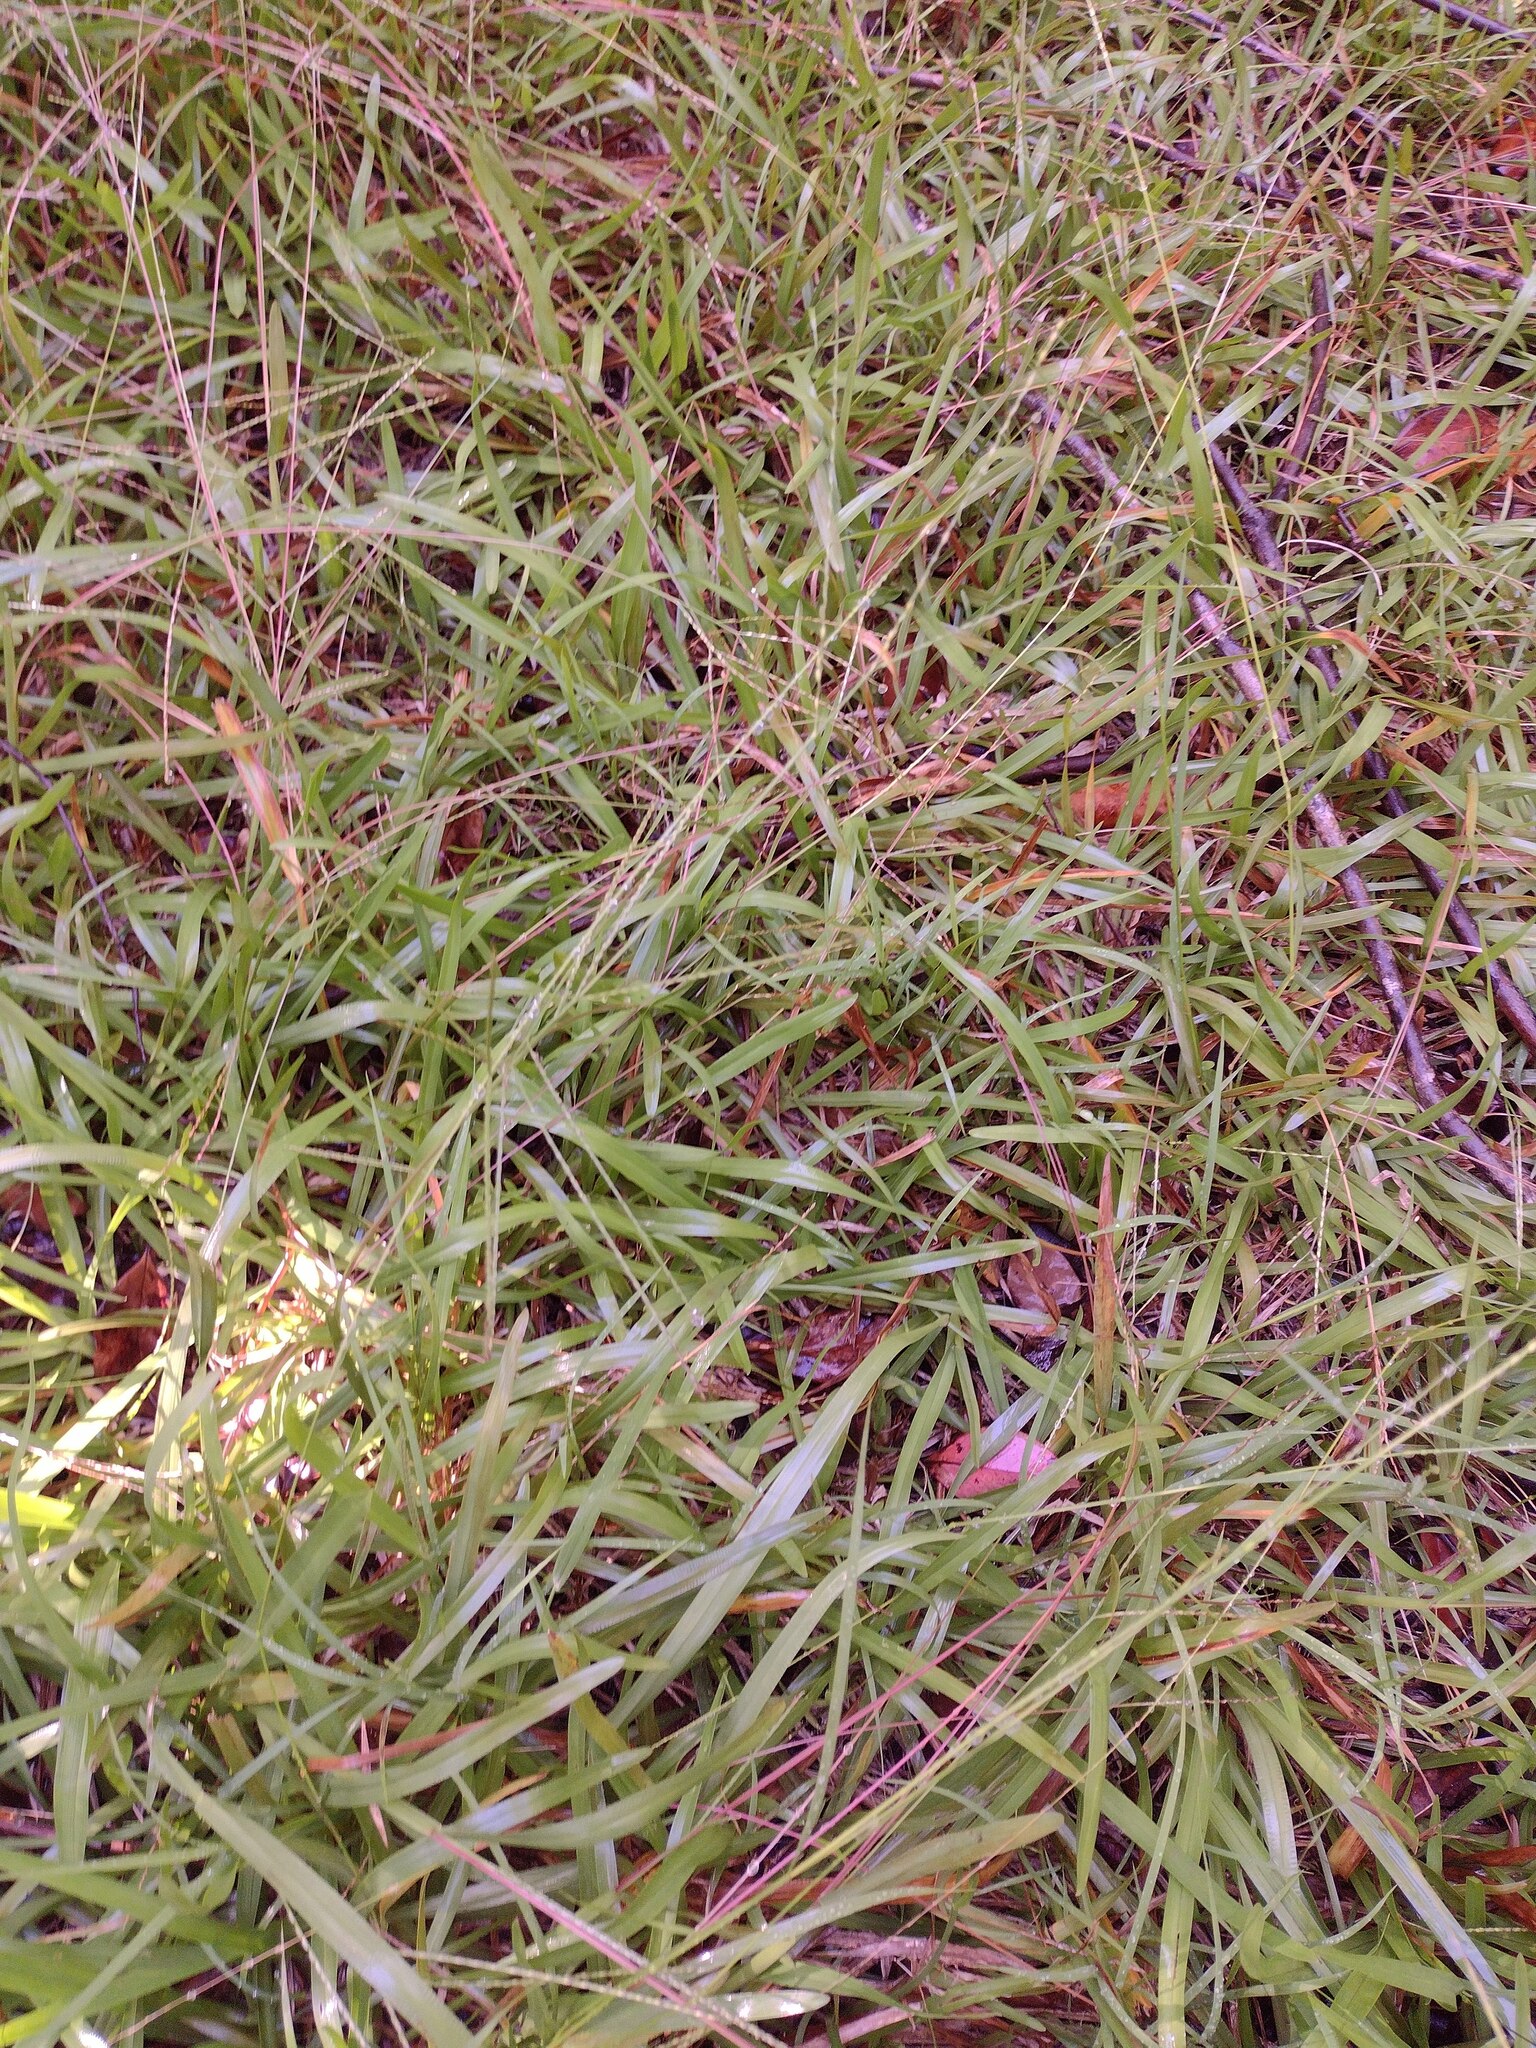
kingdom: Plantae
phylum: Tracheophyta
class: Liliopsida
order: Poales
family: Poaceae
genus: Axonopus
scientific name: Axonopus fissifolius
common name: Common carpetgrass
